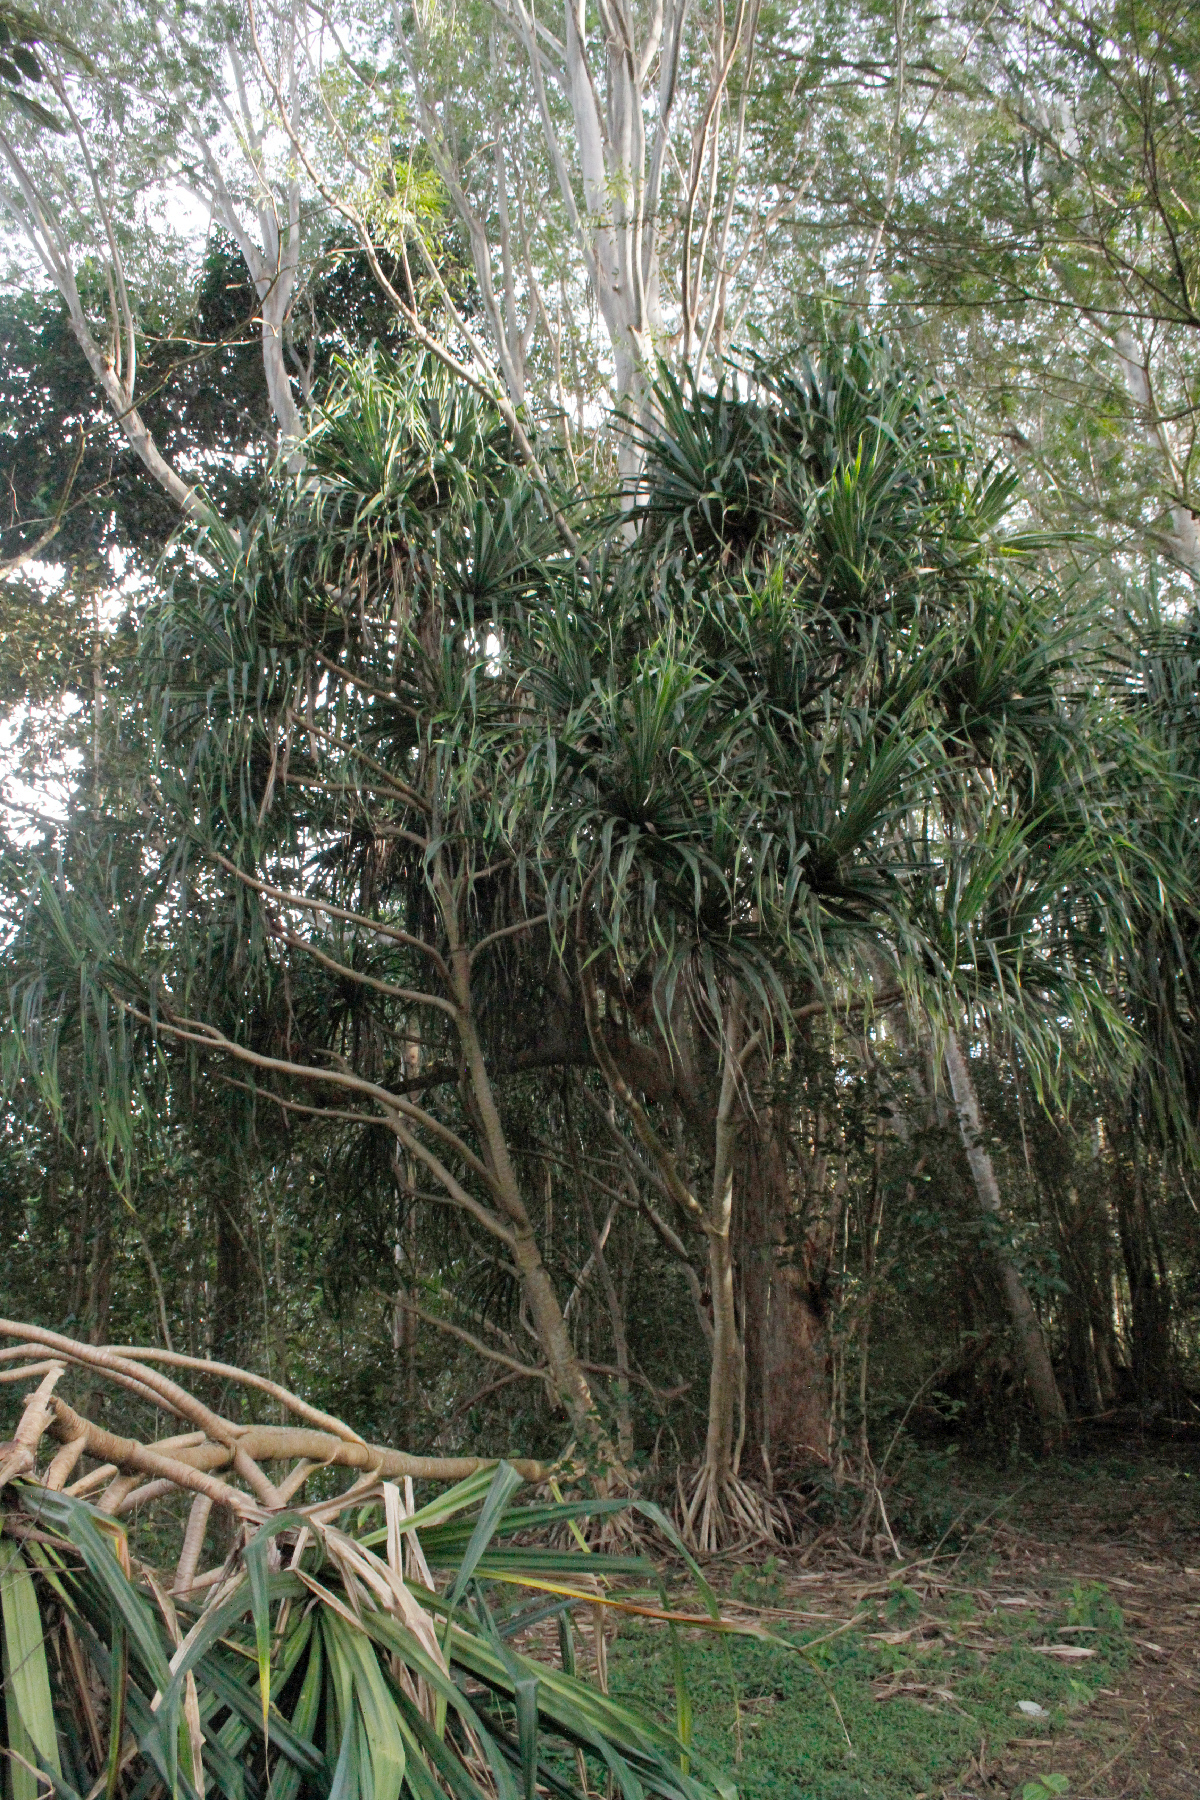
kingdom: Plantae
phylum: Tracheophyta
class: Liliopsida
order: Pandanales
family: Pandanaceae
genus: Pandanus
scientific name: Pandanus tectorius
